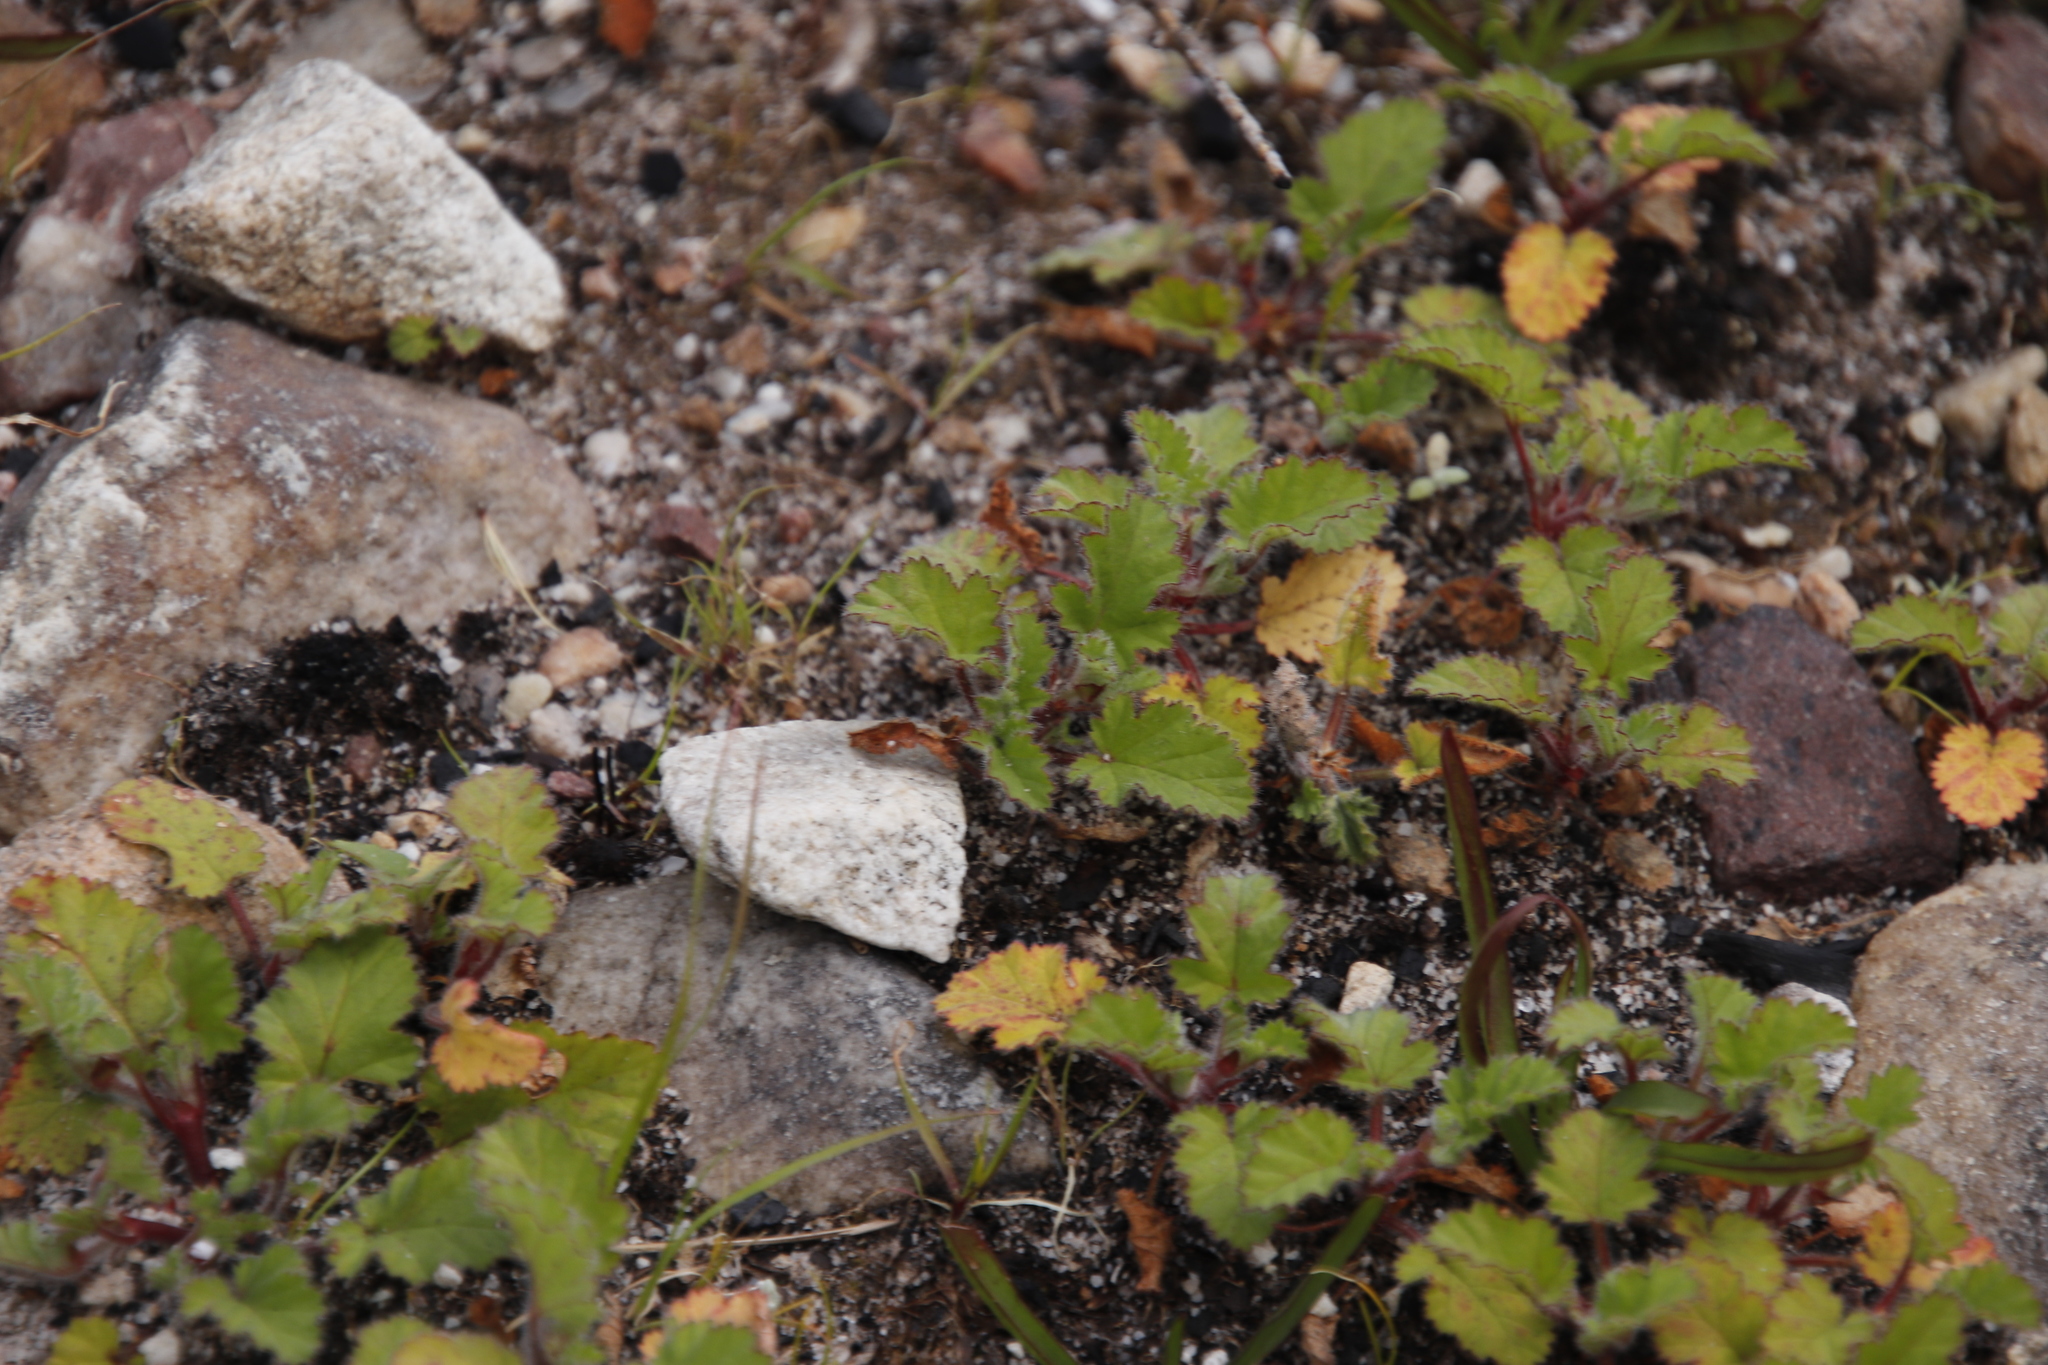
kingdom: Plantae
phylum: Tracheophyta
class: Magnoliopsida
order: Geraniales
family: Geraniaceae
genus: Pelargonium
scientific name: Pelargonium althaeoides
